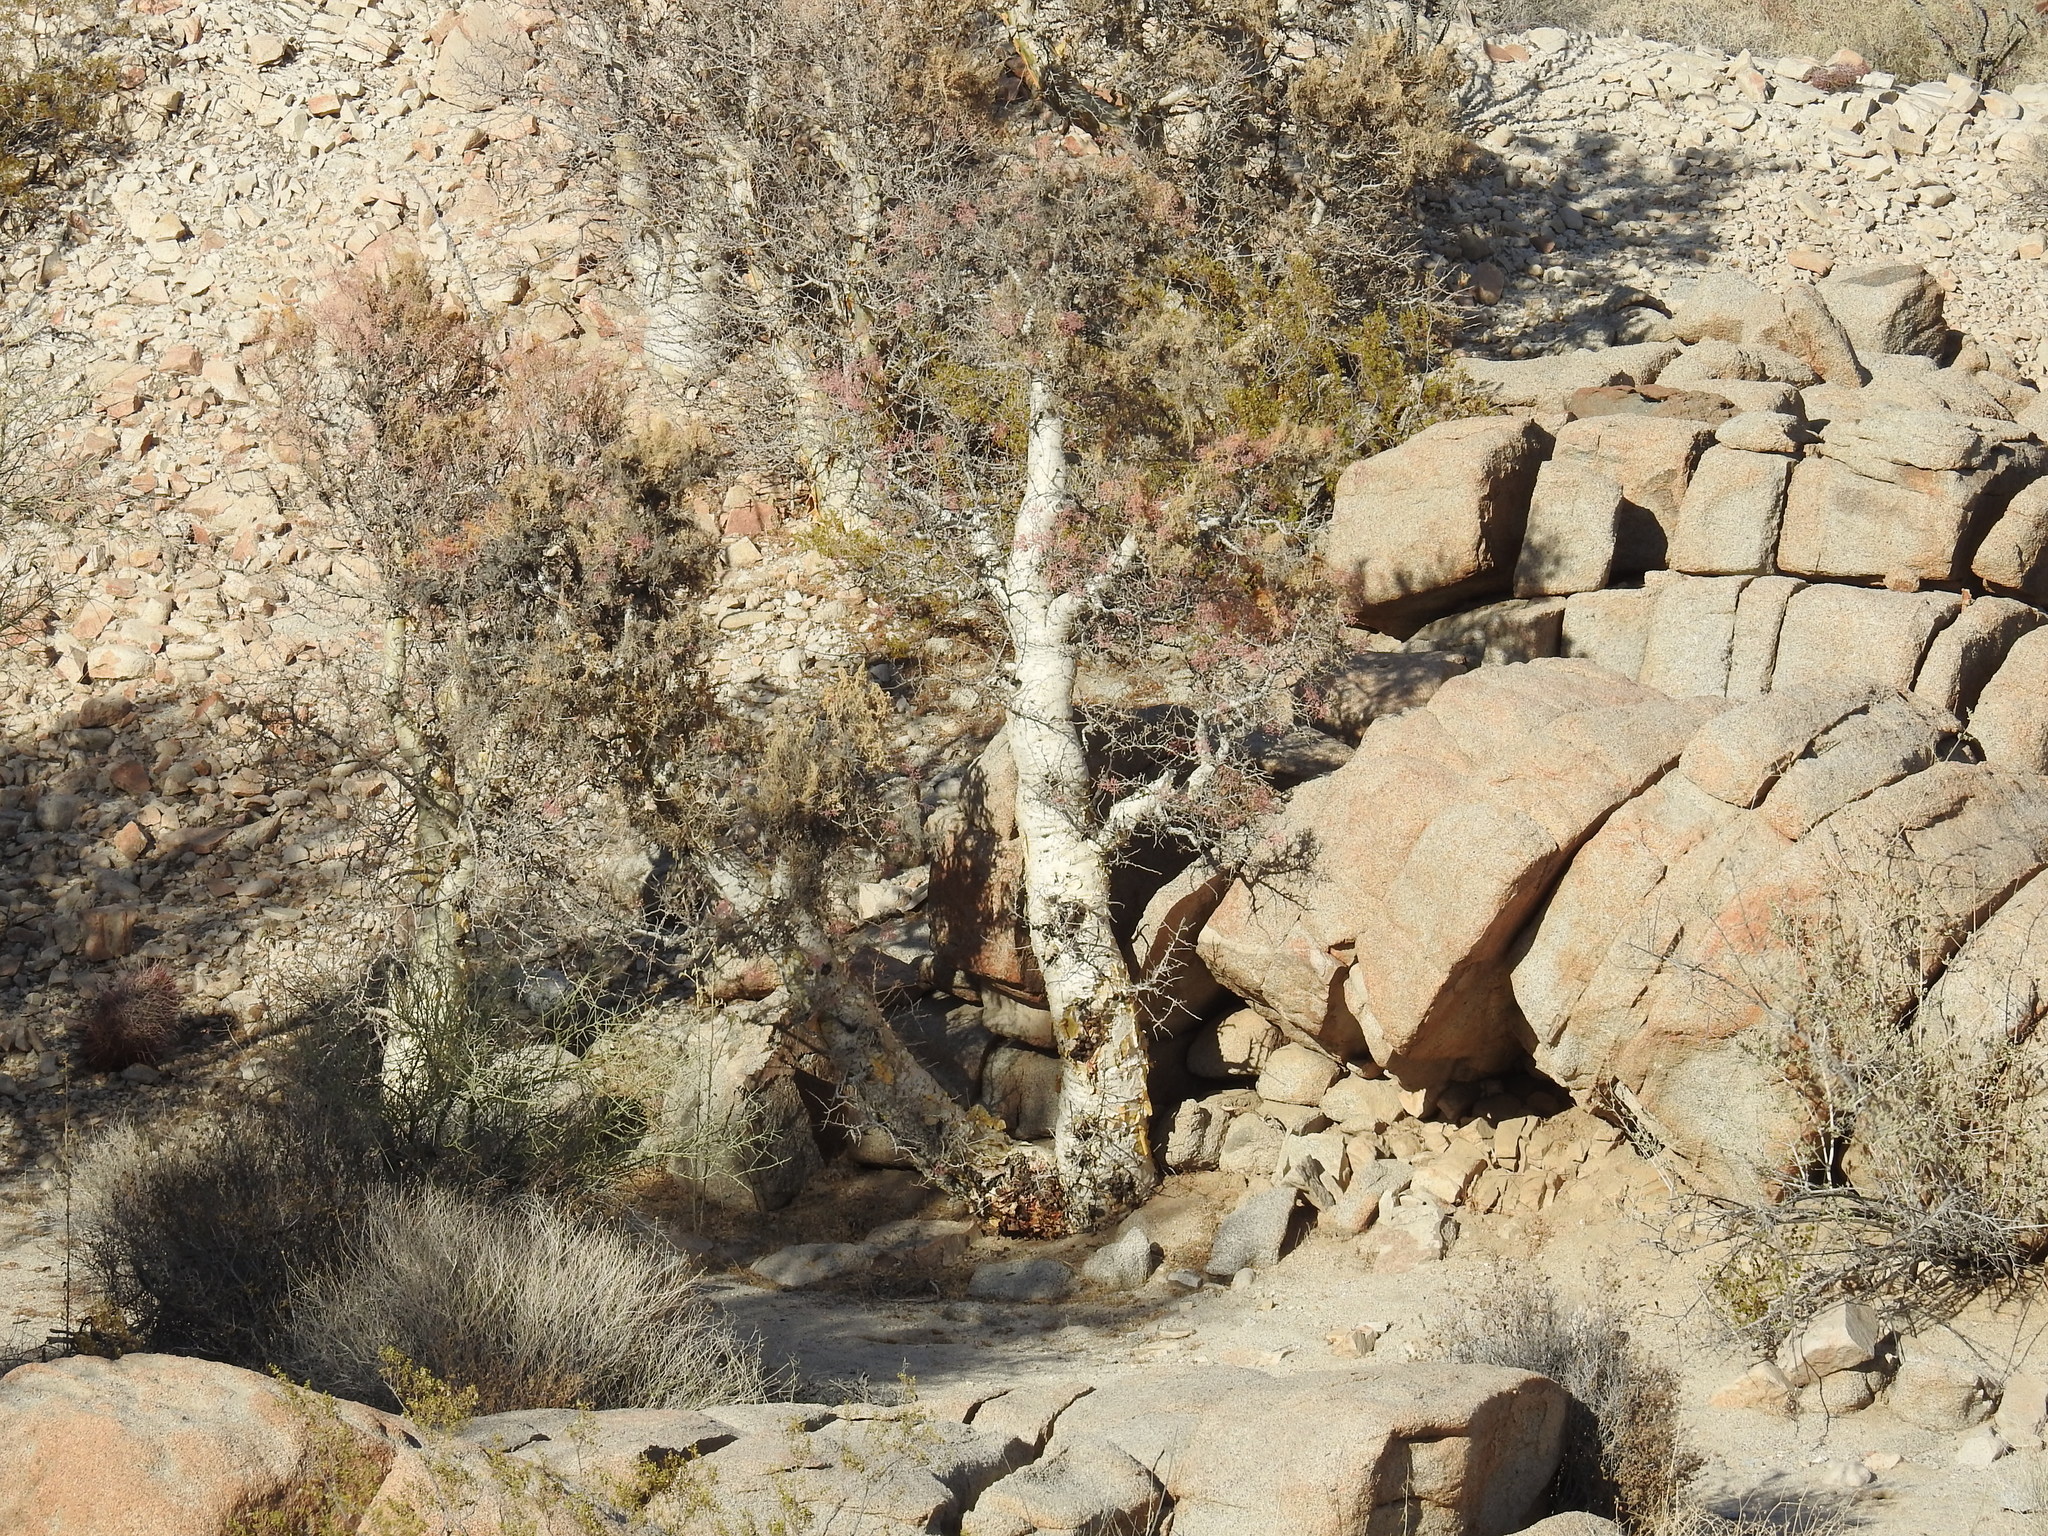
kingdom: Plantae
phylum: Tracheophyta
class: Magnoliopsida
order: Sapindales
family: Anacardiaceae
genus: Pachycormus
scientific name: Pachycormus discolor
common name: Succulent elephant trees
